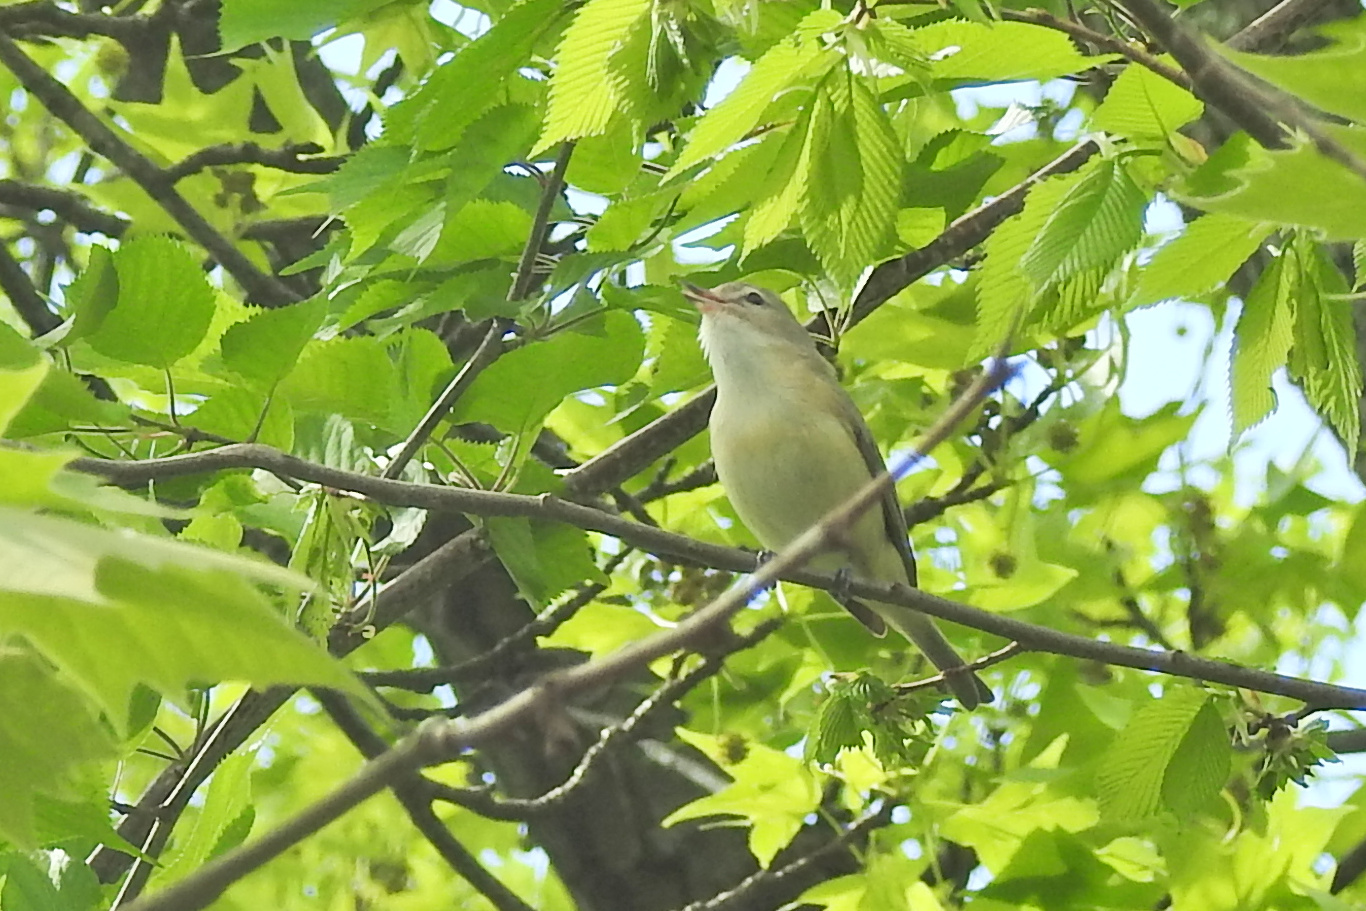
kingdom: Animalia
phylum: Chordata
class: Aves
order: Passeriformes
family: Vireonidae
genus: Vireo
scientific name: Vireo gilvus
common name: Warbling vireo
